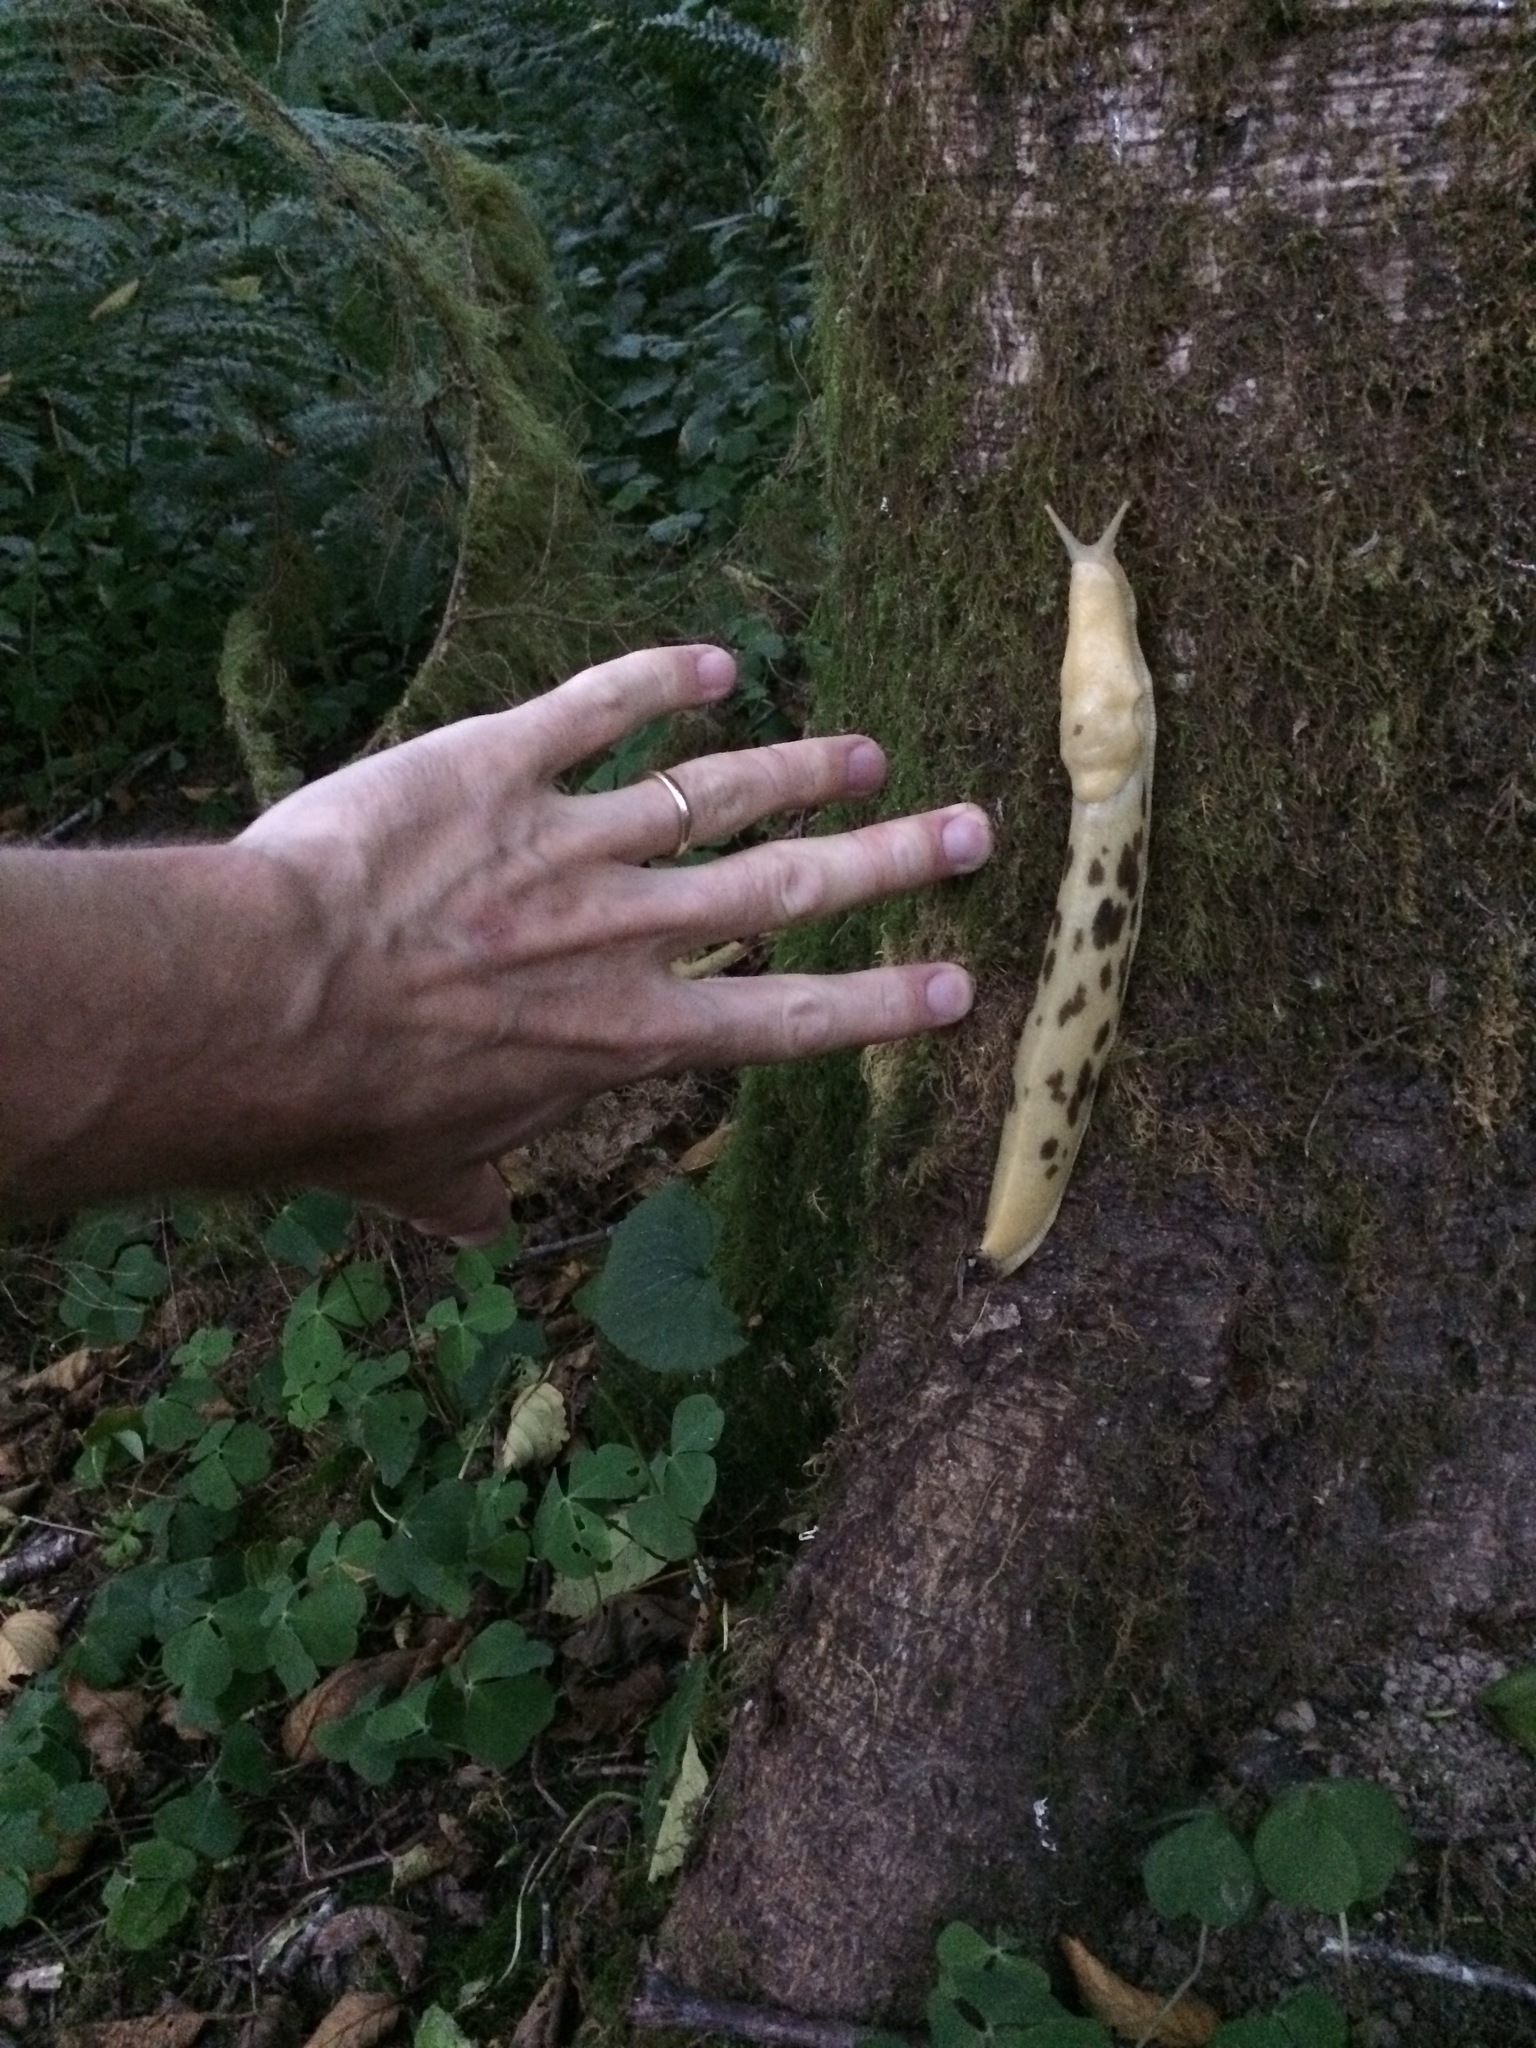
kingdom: Animalia
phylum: Mollusca
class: Gastropoda
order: Stylommatophora
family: Ariolimacidae
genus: Ariolimax
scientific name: Ariolimax columbianus
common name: Pacific banana slug
